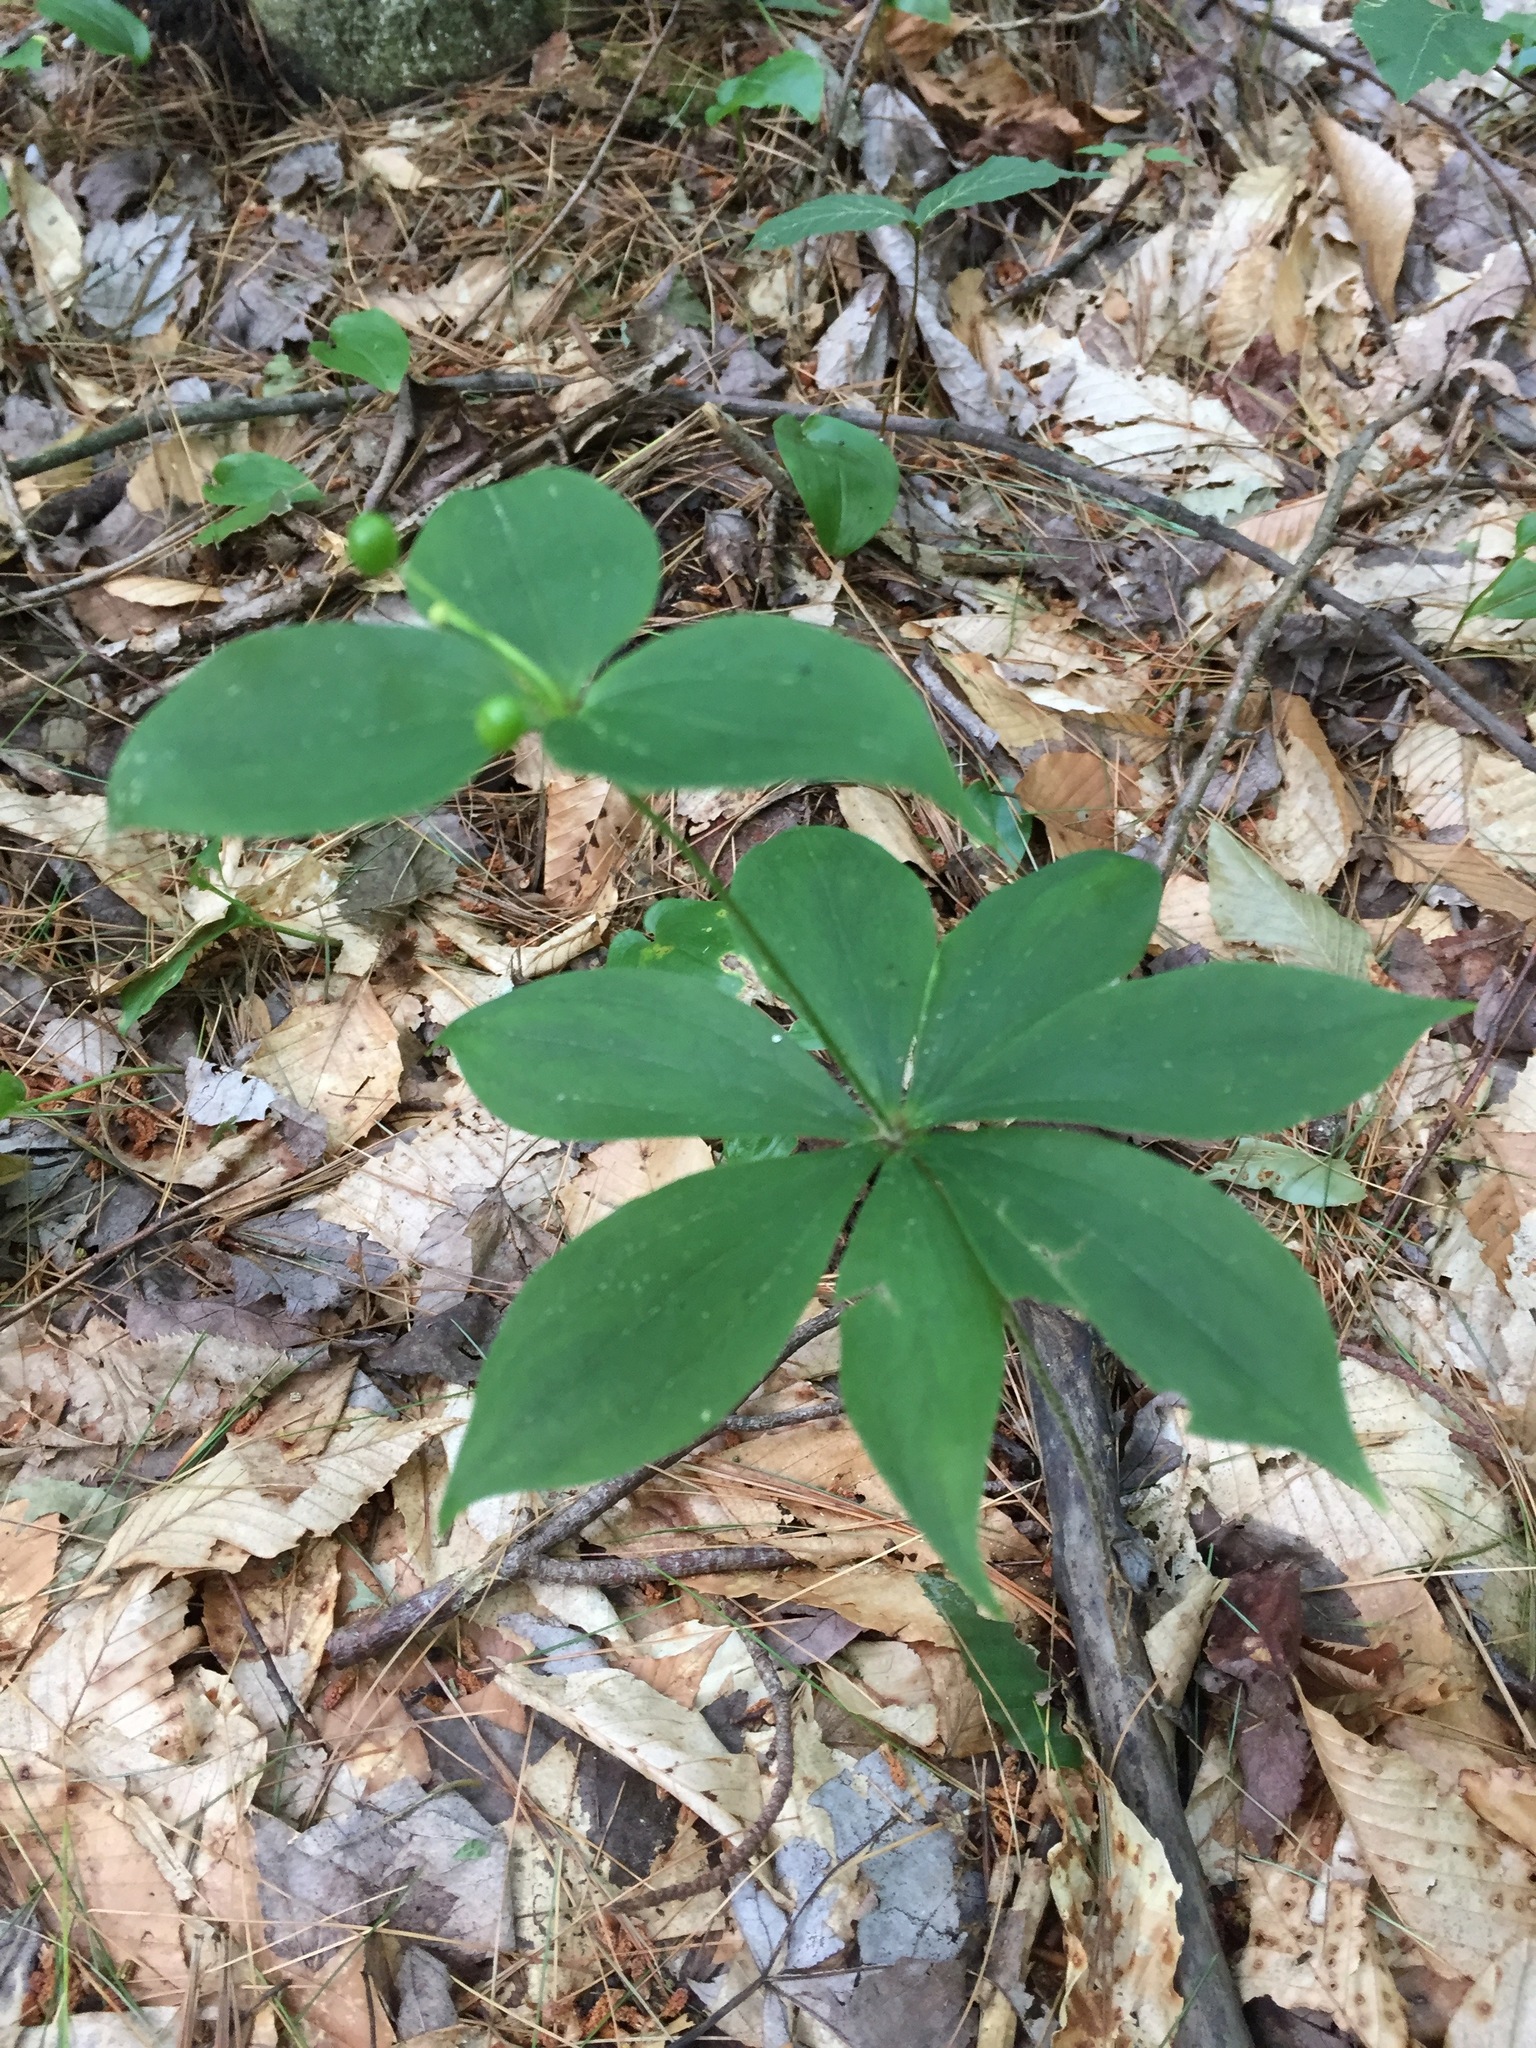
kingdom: Plantae
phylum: Tracheophyta
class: Liliopsida
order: Liliales
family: Liliaceae
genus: Medeola
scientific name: Medeola virginiana
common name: Indian cucumber-root
